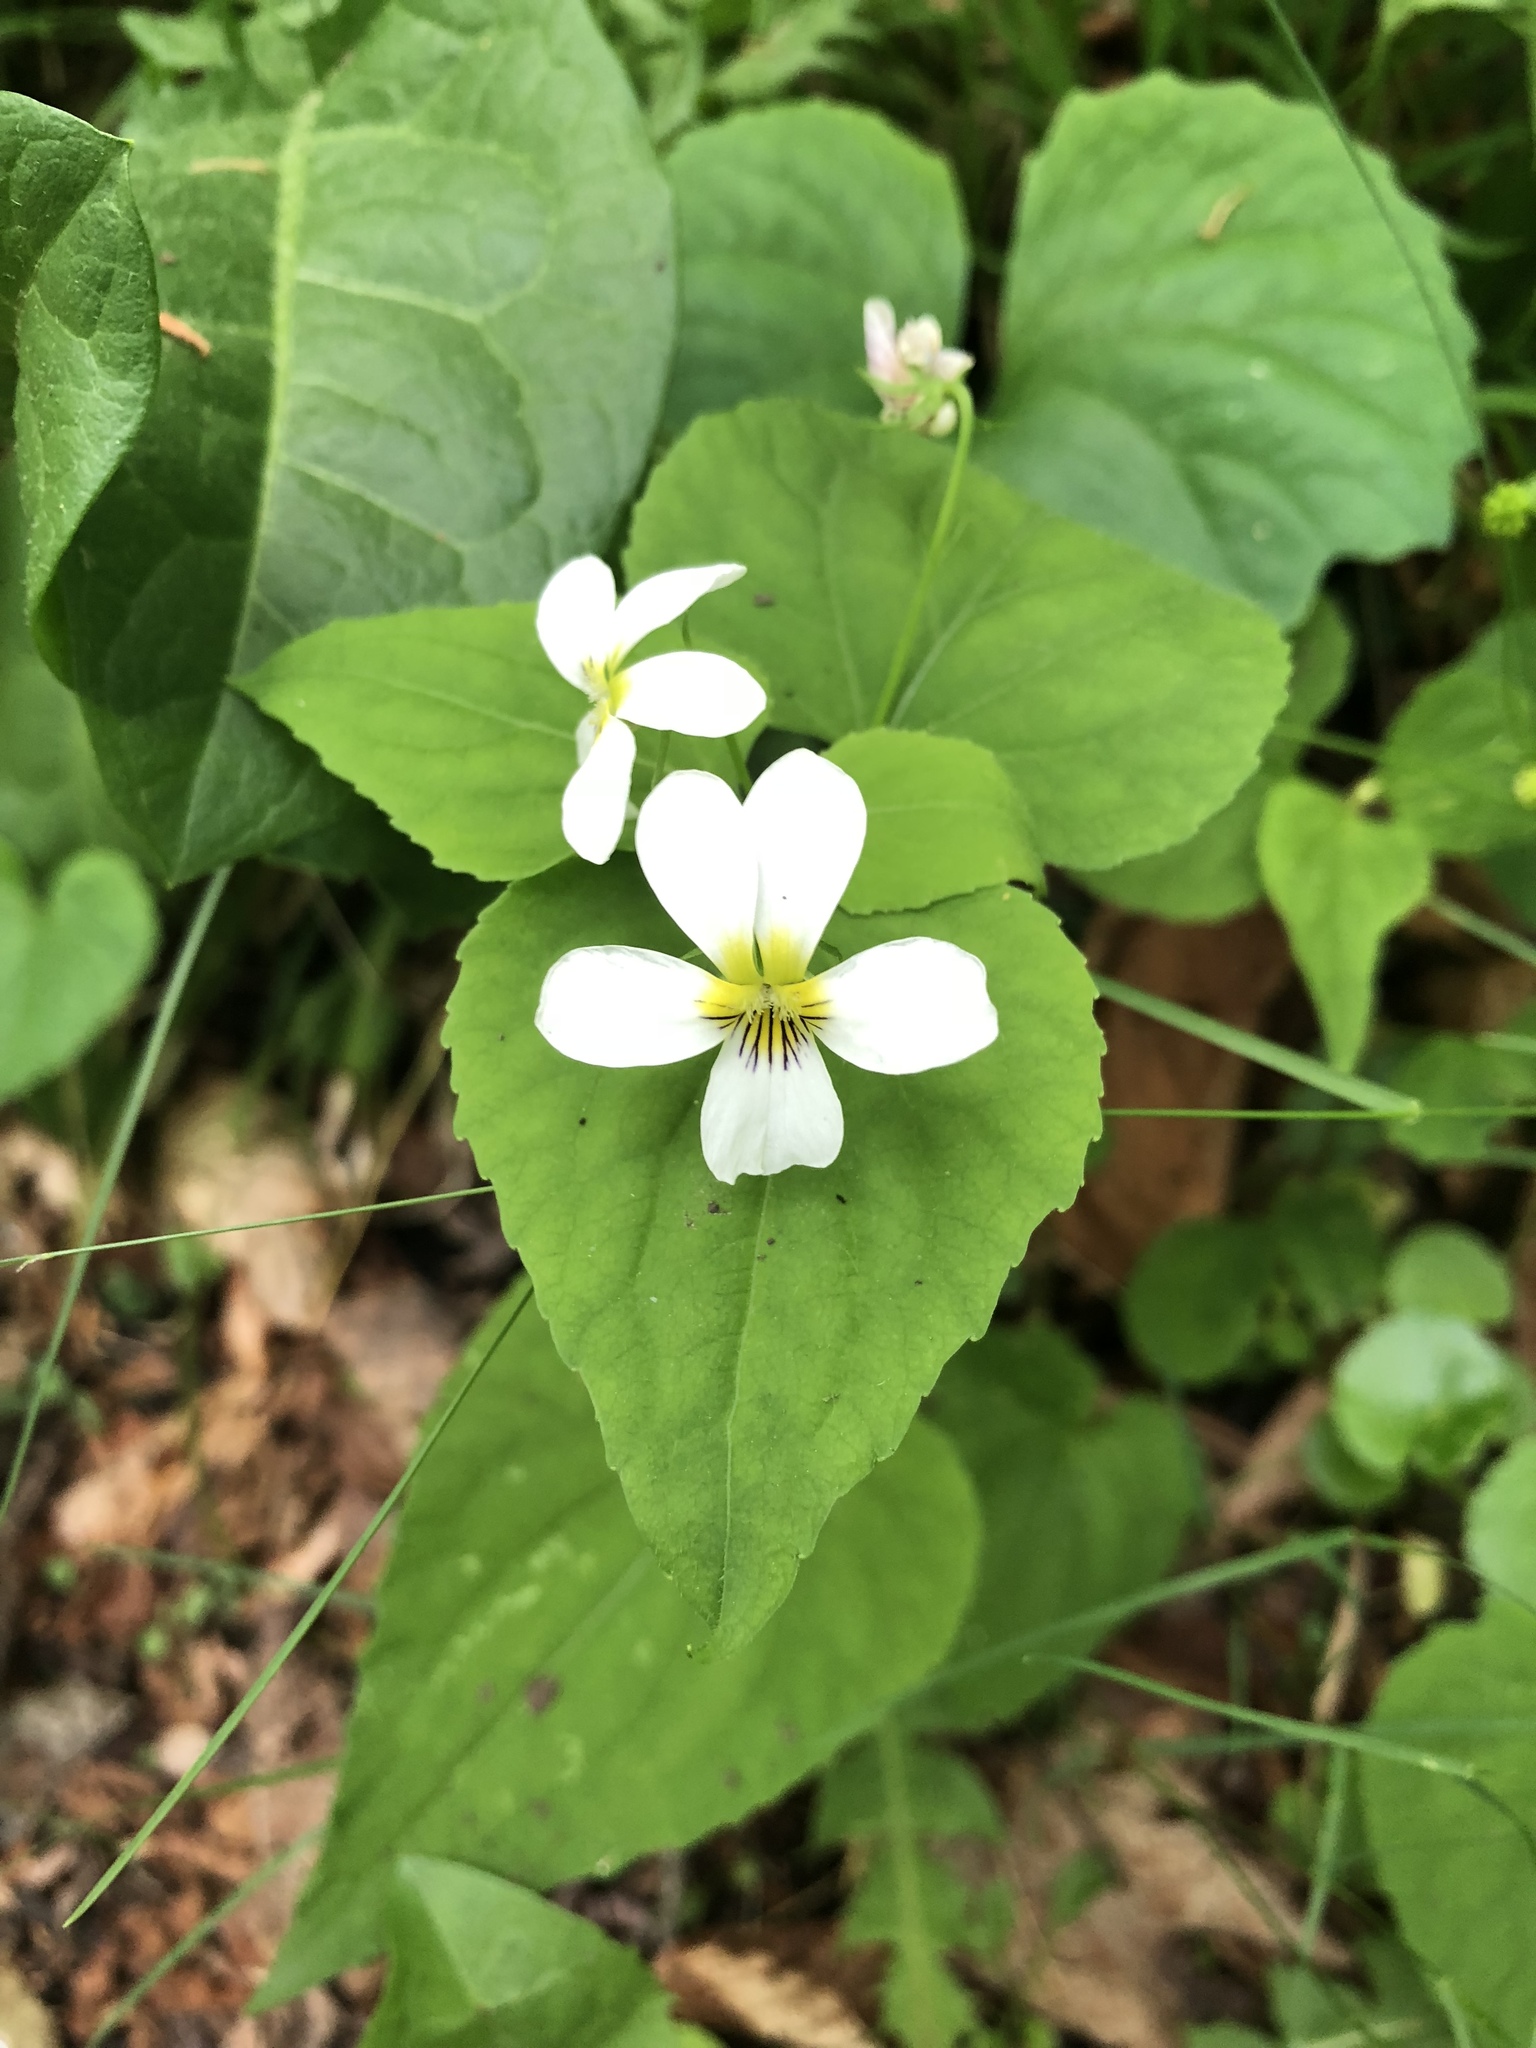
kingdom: Plantae
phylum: Tracheophyta
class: Magnoliopsida
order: Malpighiales
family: Violaceae
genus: Viola
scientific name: Viola canadensis
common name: Canada violet
